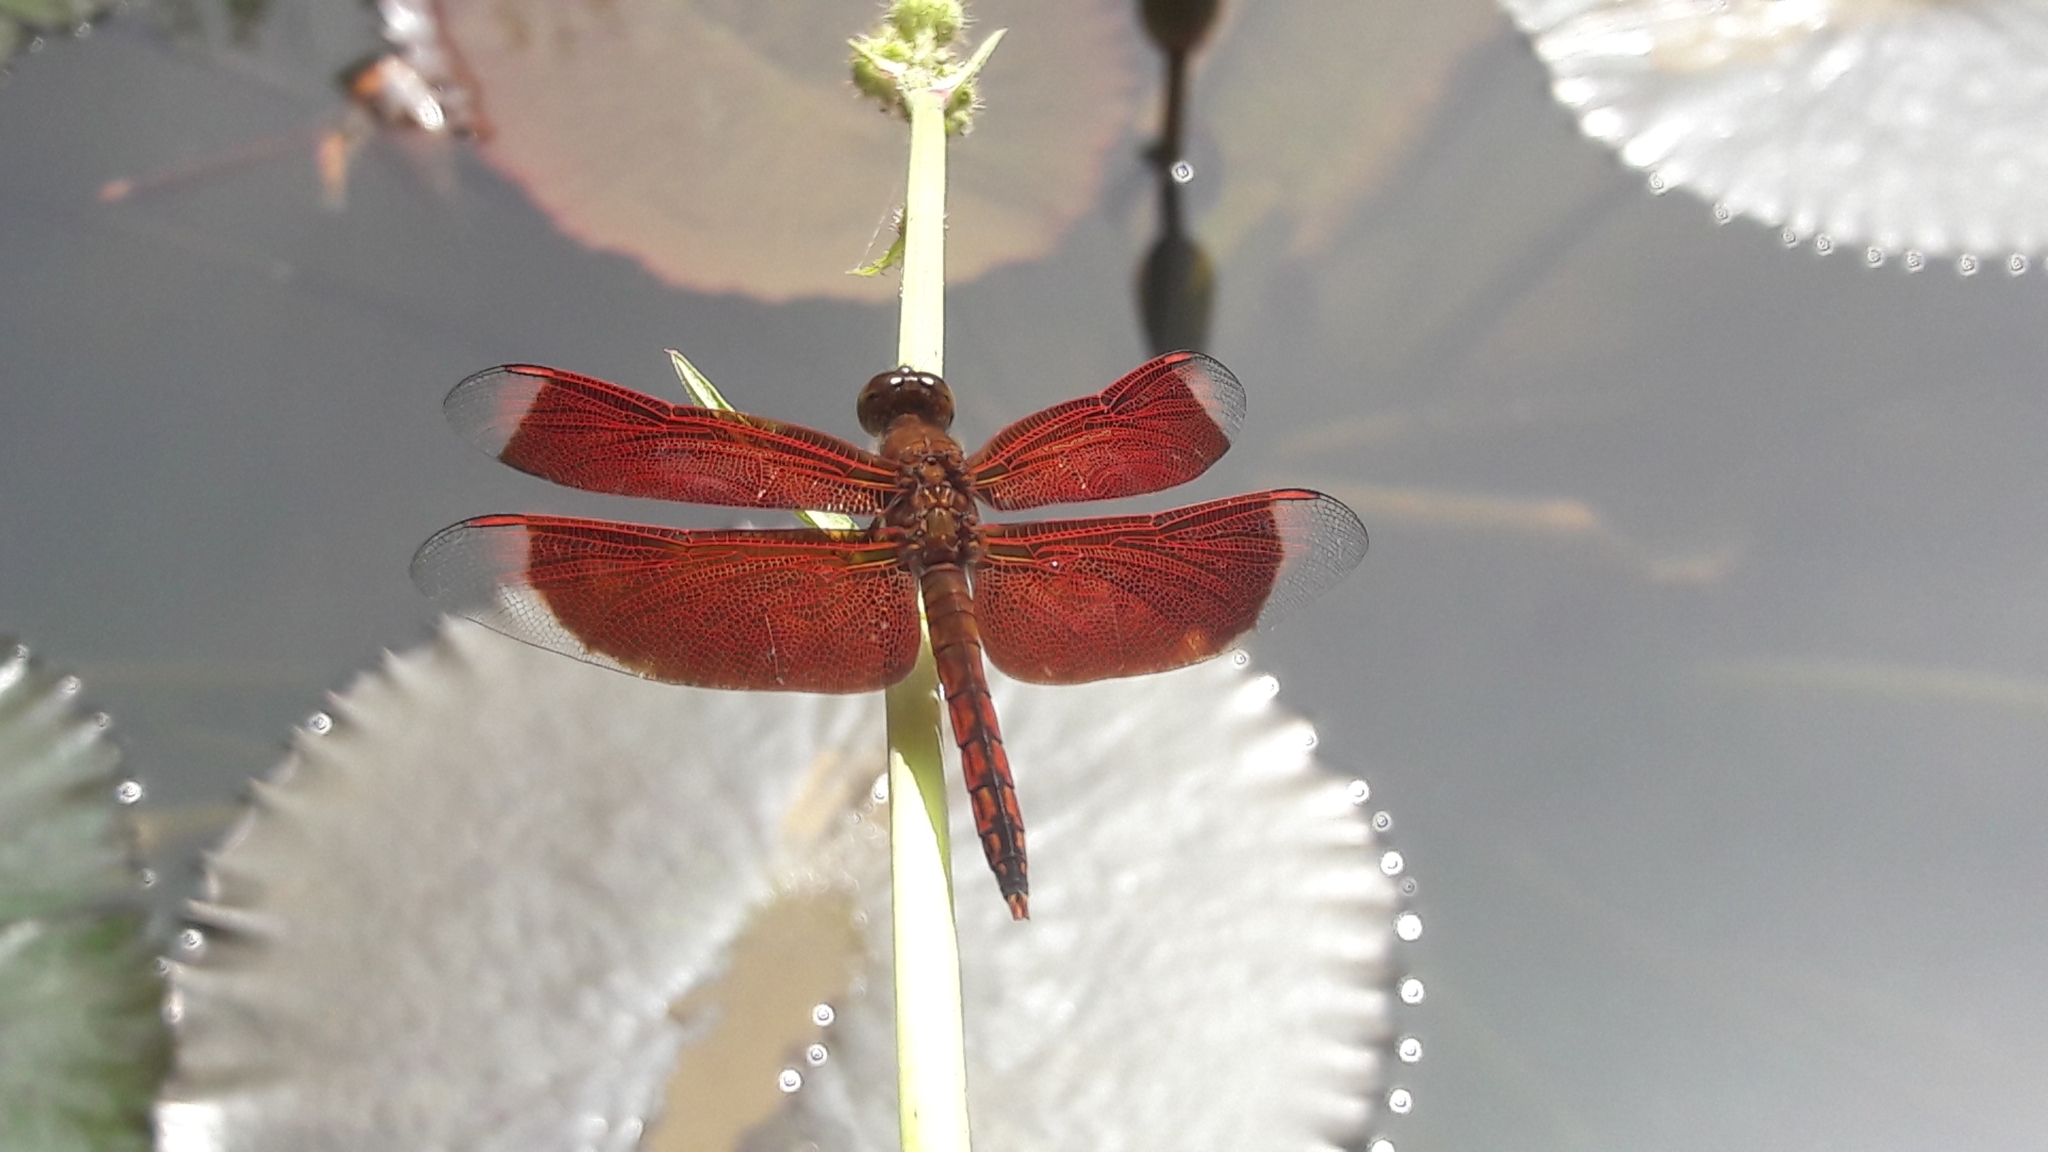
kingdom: Animalia
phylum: Arthropoda
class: Insecta
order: Odonata
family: Libellulidae
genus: Neurothemis
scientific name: Neurothemis ramburii
